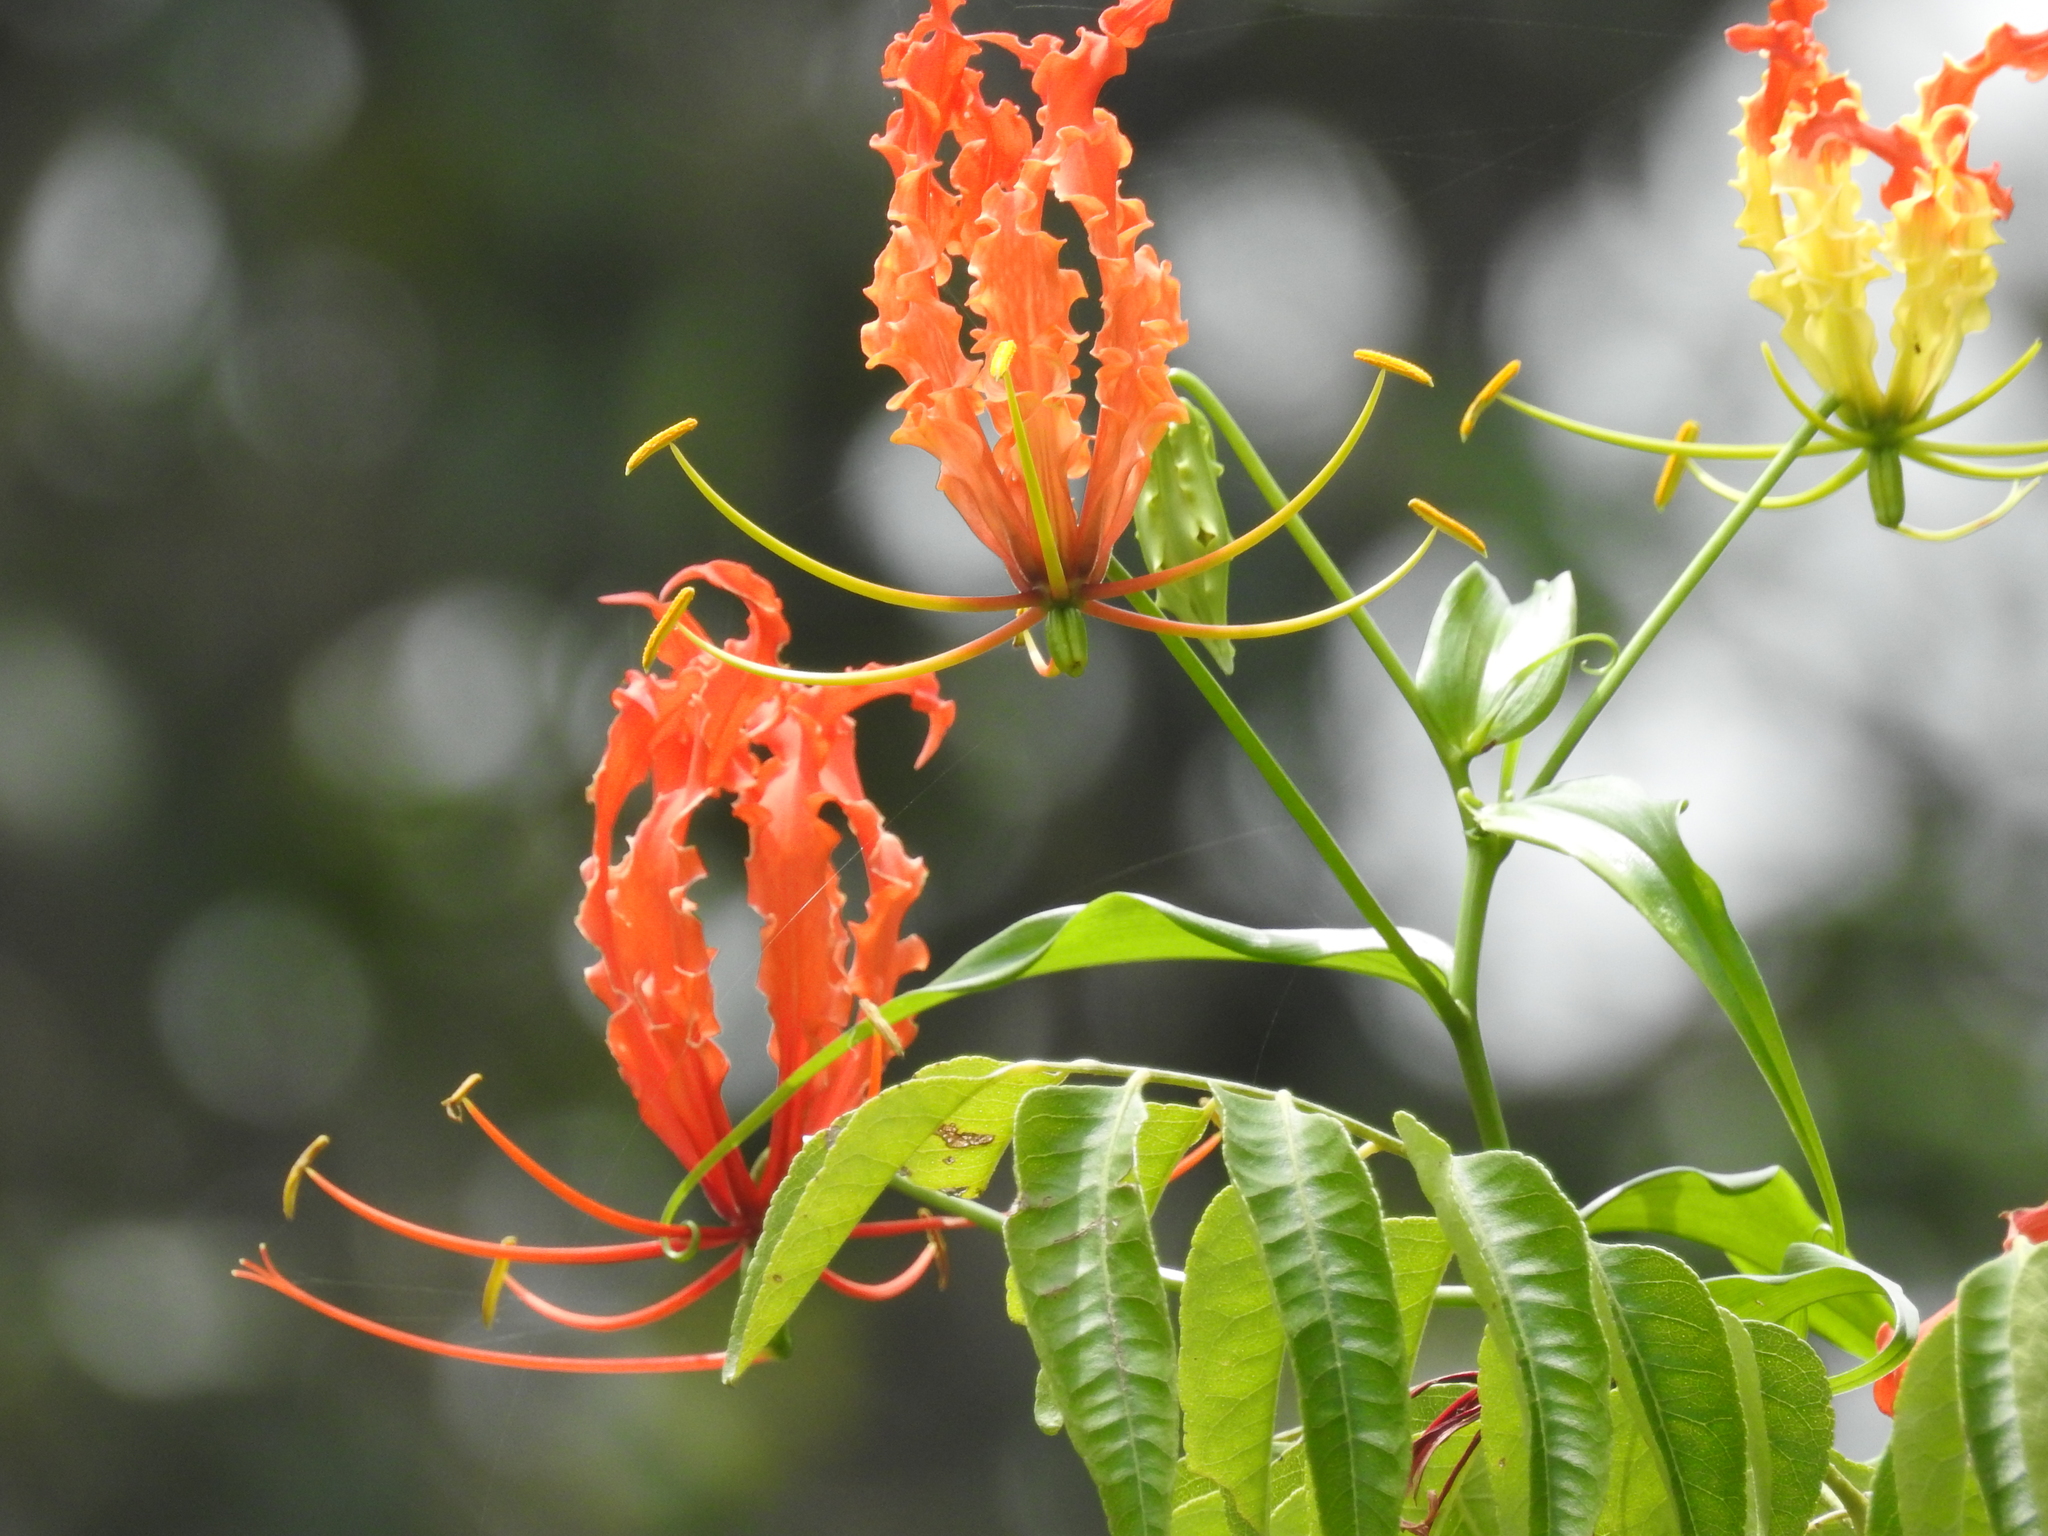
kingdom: Plantae
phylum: Tracheophyta
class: Liliopsida
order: Liliales
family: Colchicaceae
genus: Gloriosa
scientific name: Gloriosa superba
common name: Flame lily
